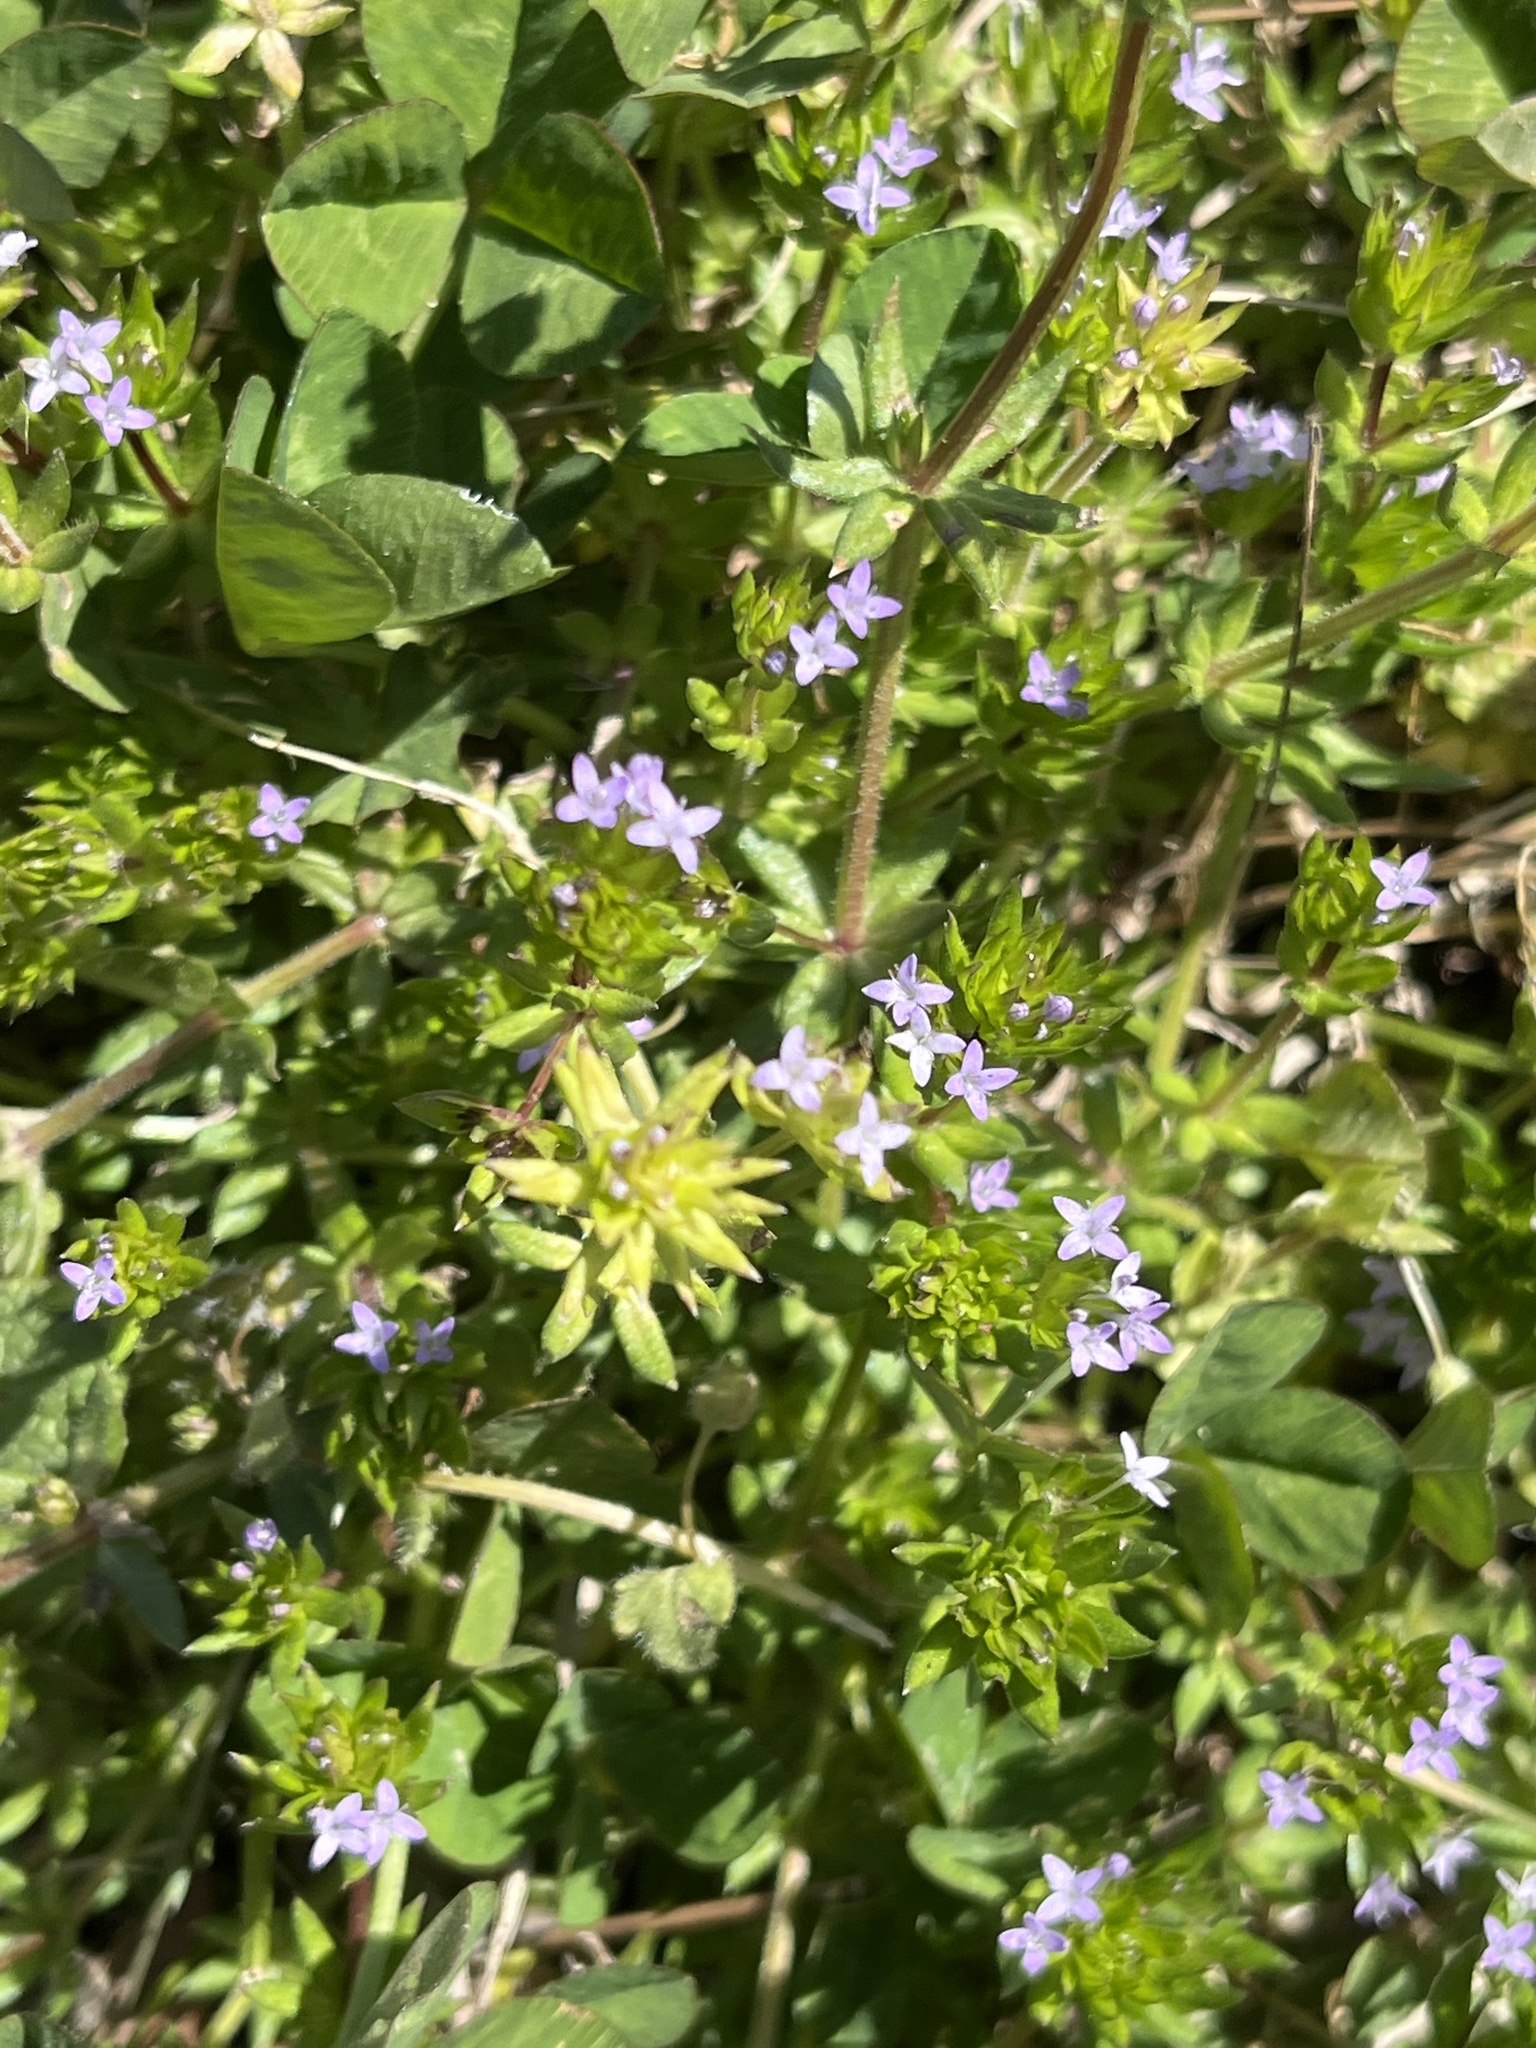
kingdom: Plantae
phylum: Tracheophyta
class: Magnoliopsida
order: Gentianales
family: Rubiaceae
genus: Sherardia
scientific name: Sherardia arvensis
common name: Field madder
